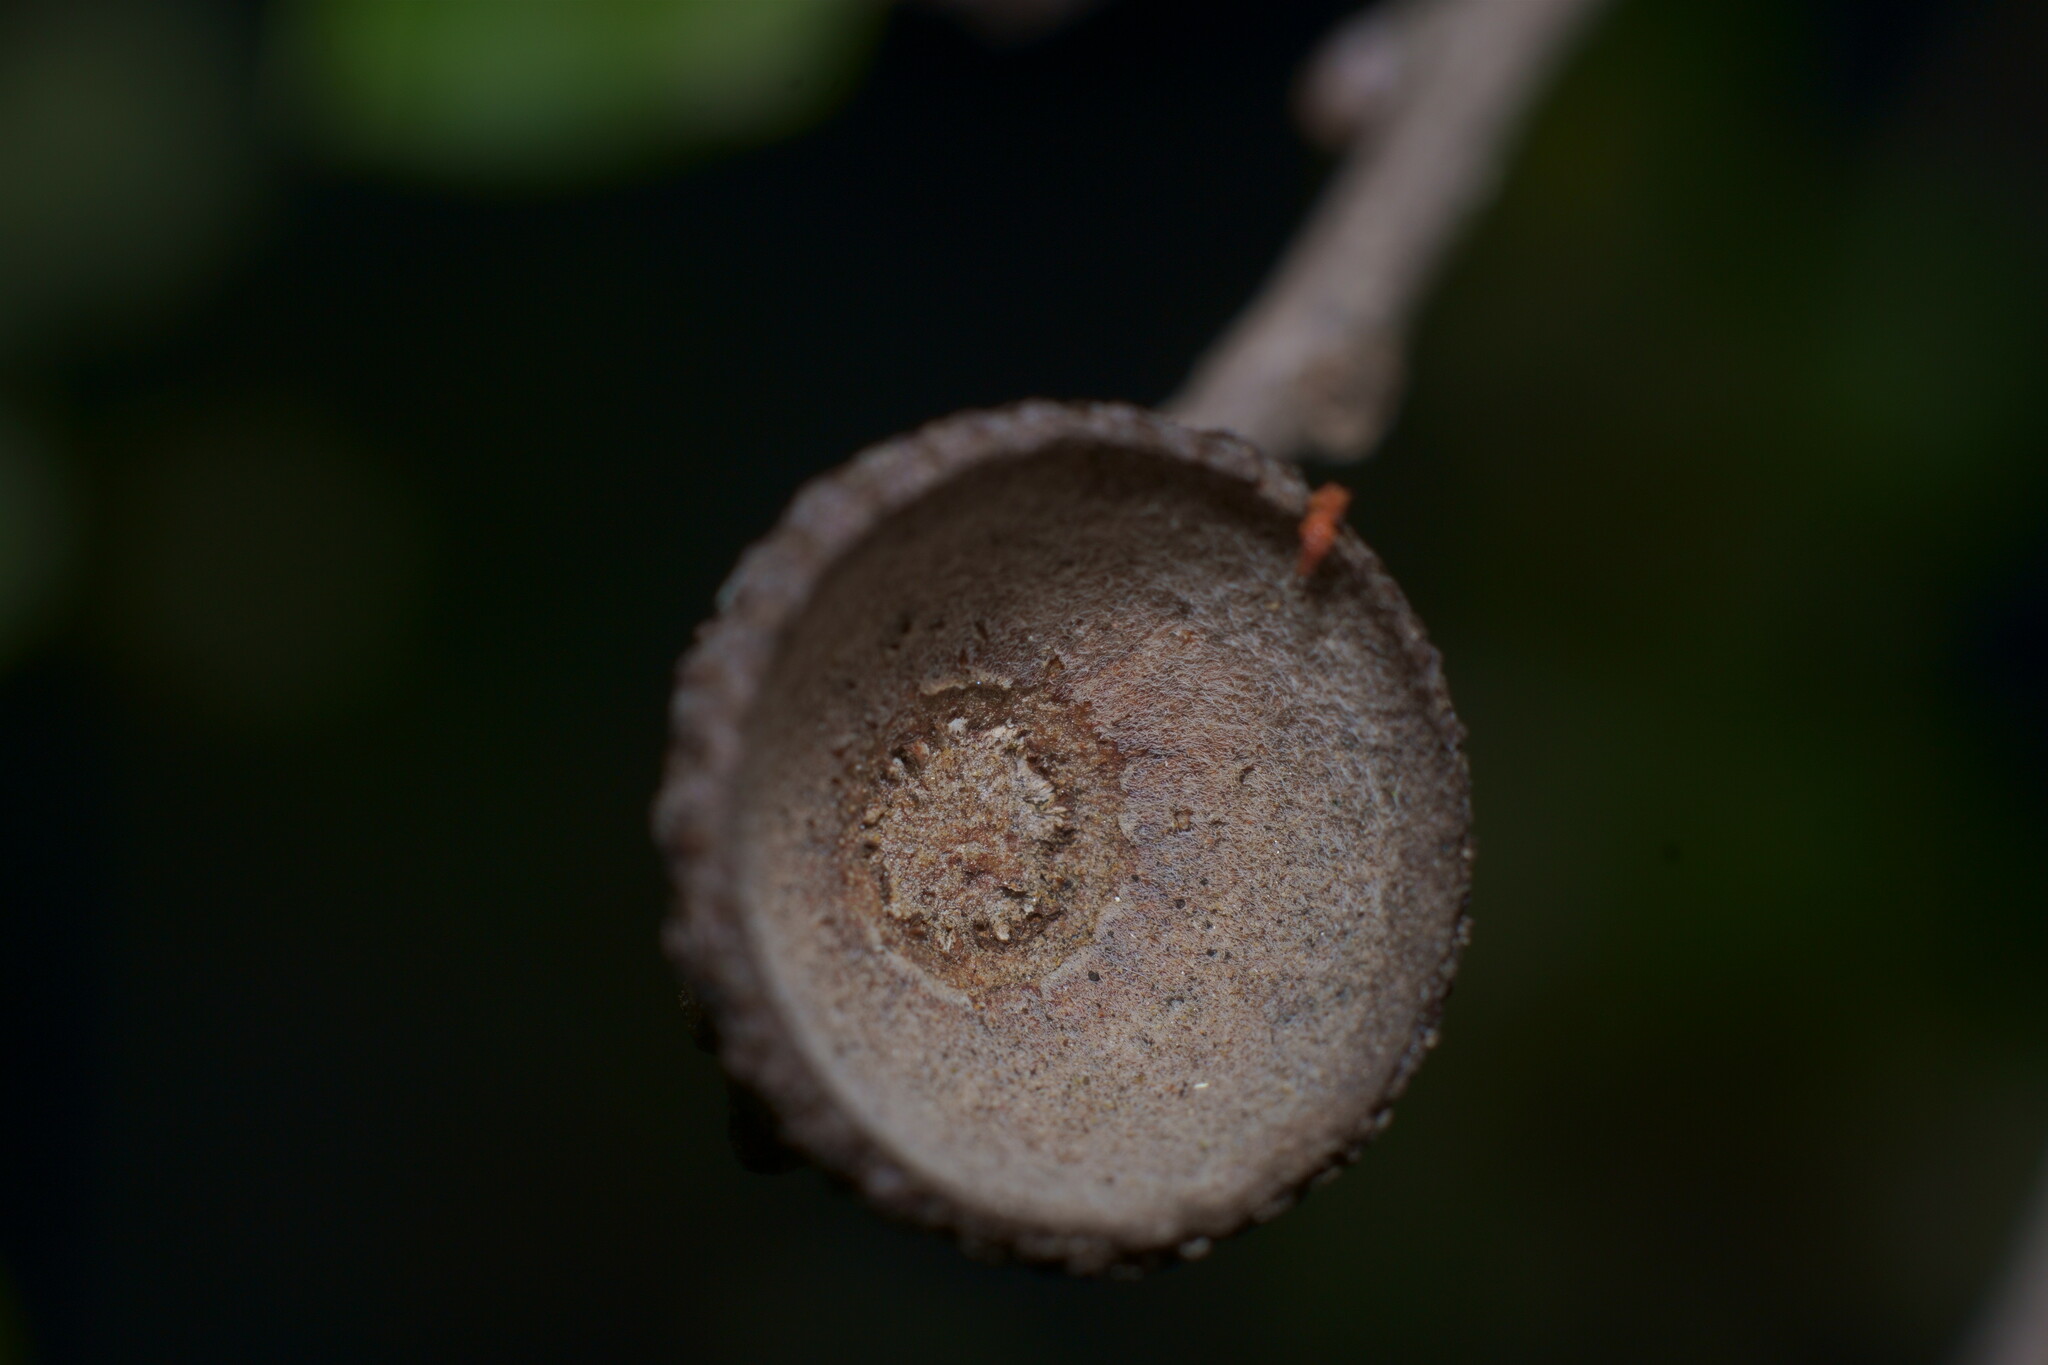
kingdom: Plantae
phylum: Tracheophyta
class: Magnoliopsida
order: Fagales
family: Fagaceae
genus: Quercus
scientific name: Quercus dumosa
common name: Coastal sage scrub oak
